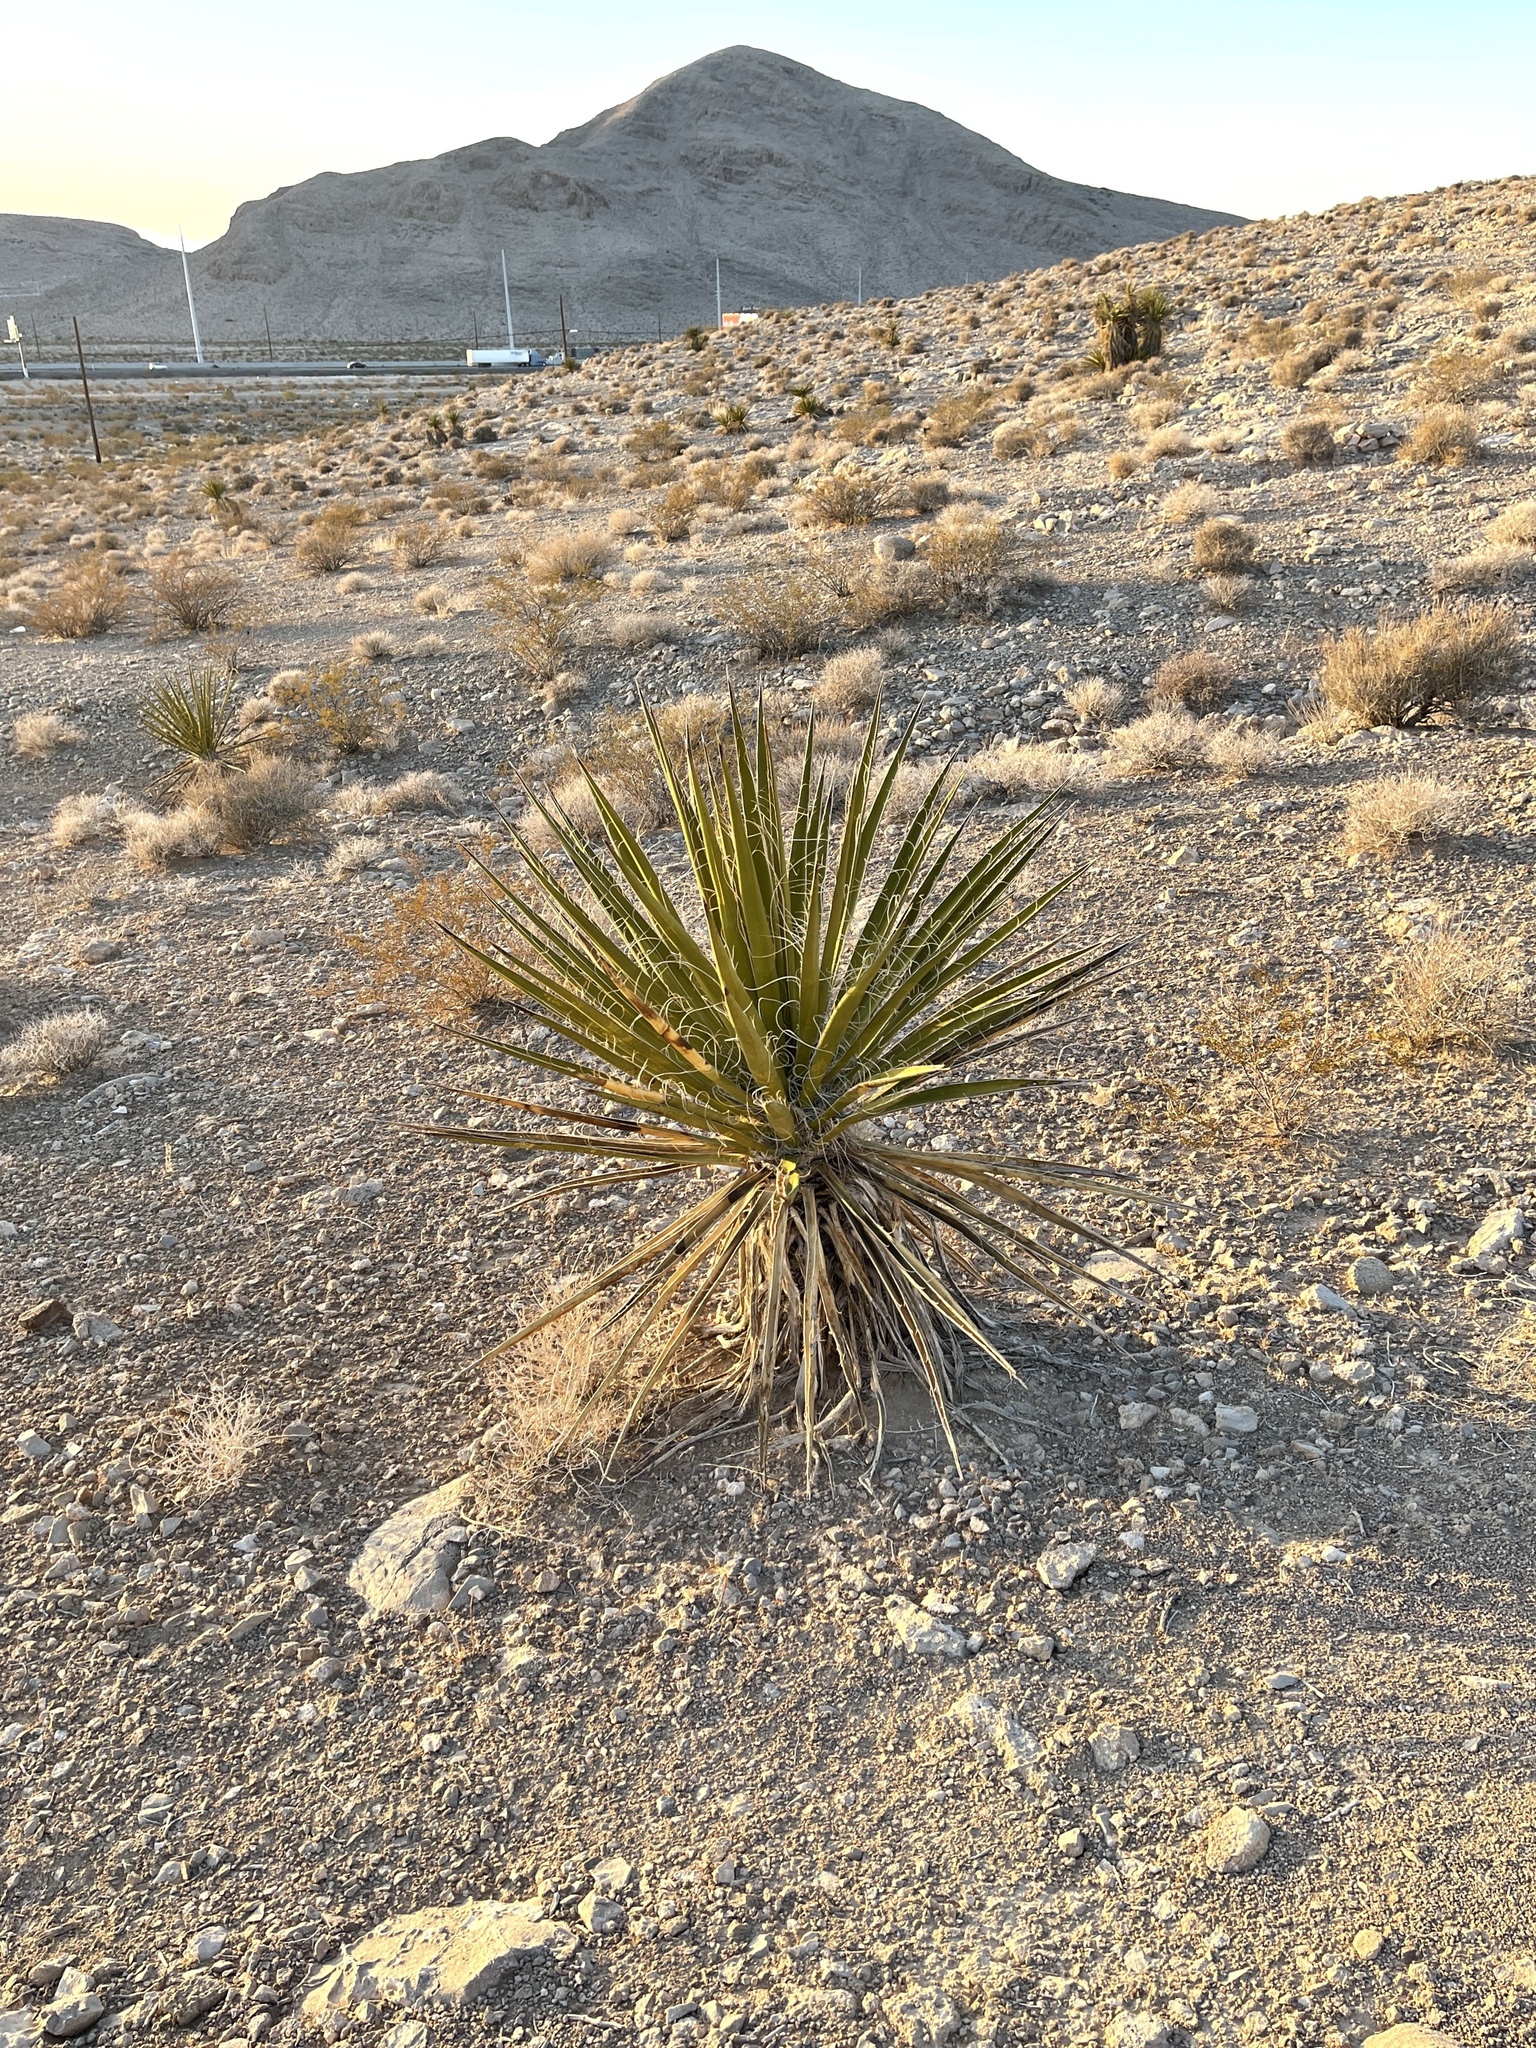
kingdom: Plantae
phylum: Tracheophyta
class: Liliopsida
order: Asparagales
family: Asparagaceae
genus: Yucca
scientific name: Yucca schidigera
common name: Mojave yucca
